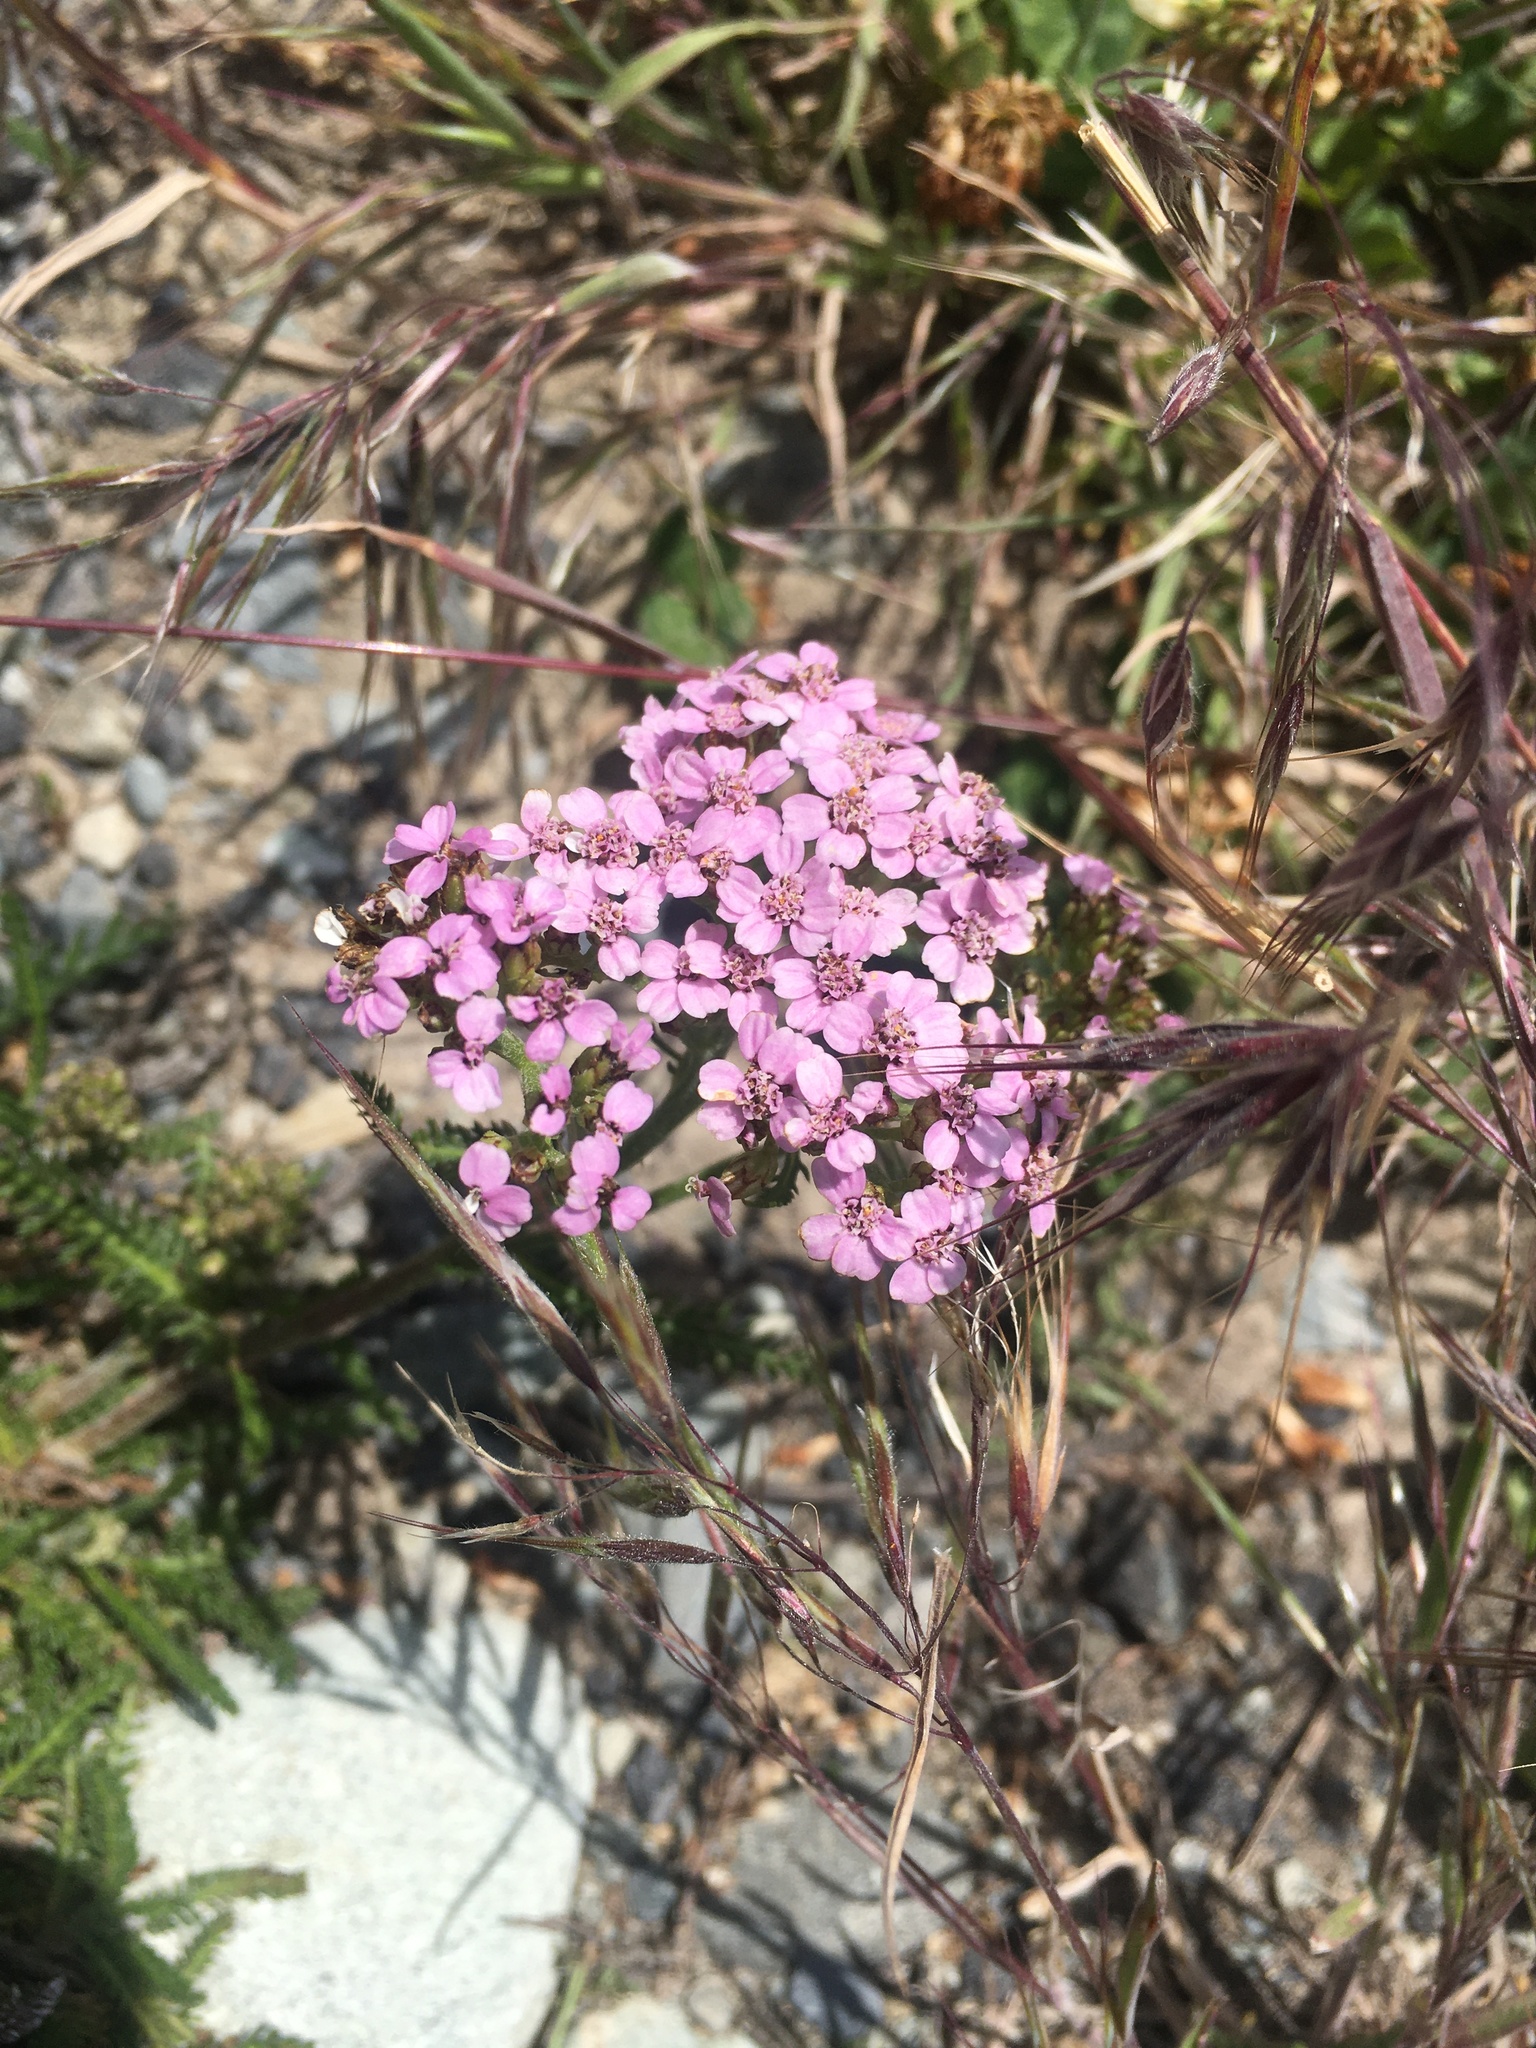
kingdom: Plantae
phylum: Tracheophyta
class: Magnoliopsida
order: Asterales
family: Asteraceae
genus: Achillea
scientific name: Achillea millefolium
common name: Yarrow
